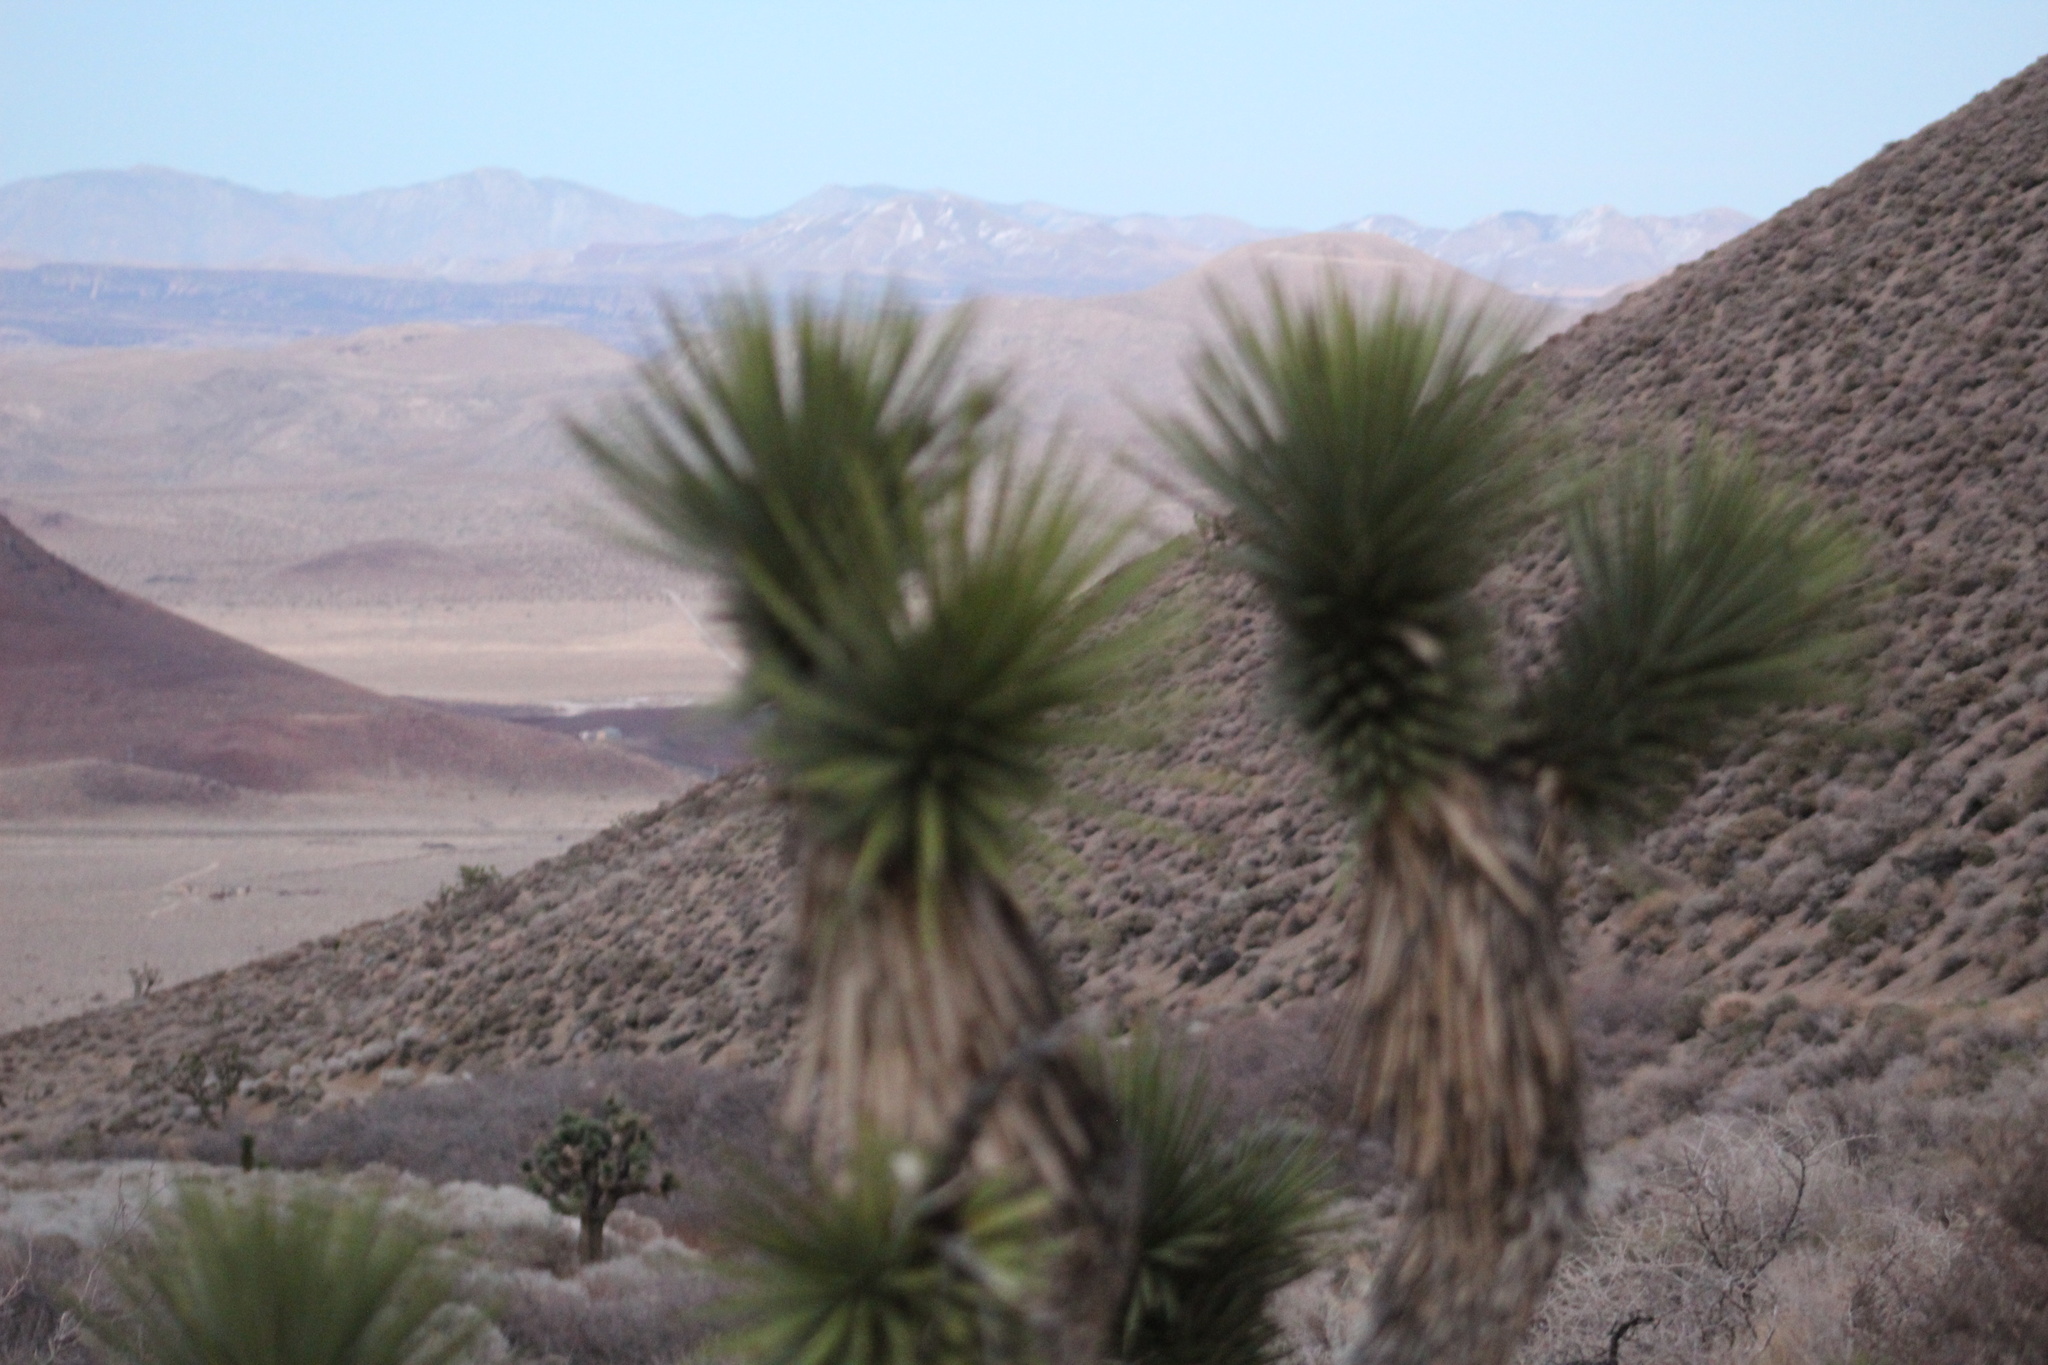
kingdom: Plantae
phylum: Tracheophyta
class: Liliopsida
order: Asparagales
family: Asparagaceae
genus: Yucca
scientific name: Yucca brevifolia
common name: Joshua tree
